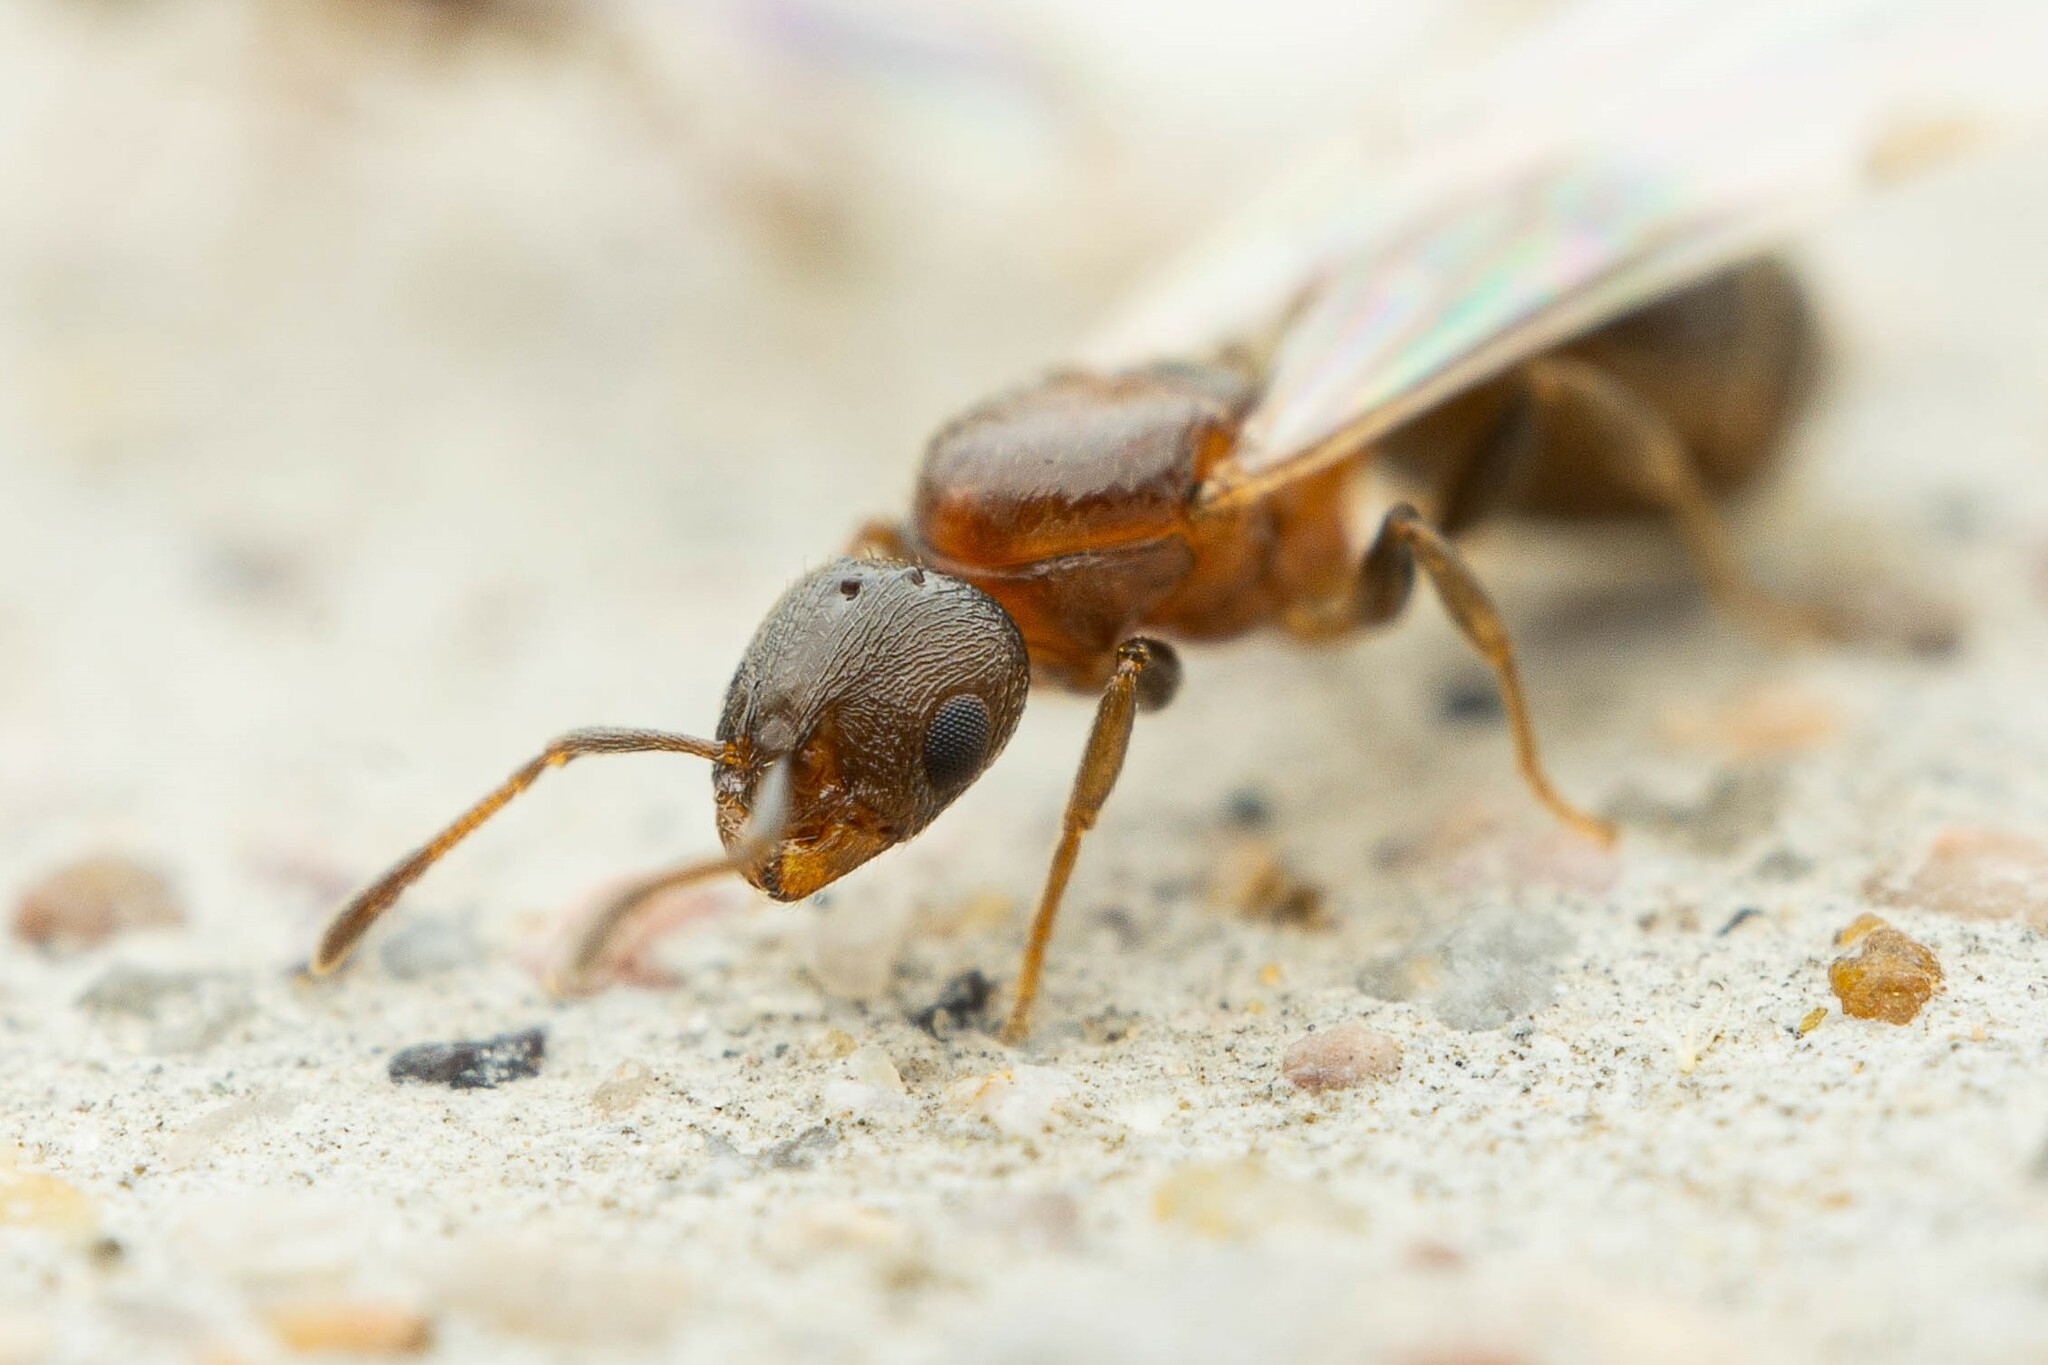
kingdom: Animalia
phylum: Arthropoda
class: Insecta
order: Hymenoptera
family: Formicidae
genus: Temnothorax
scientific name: Temnothorax
